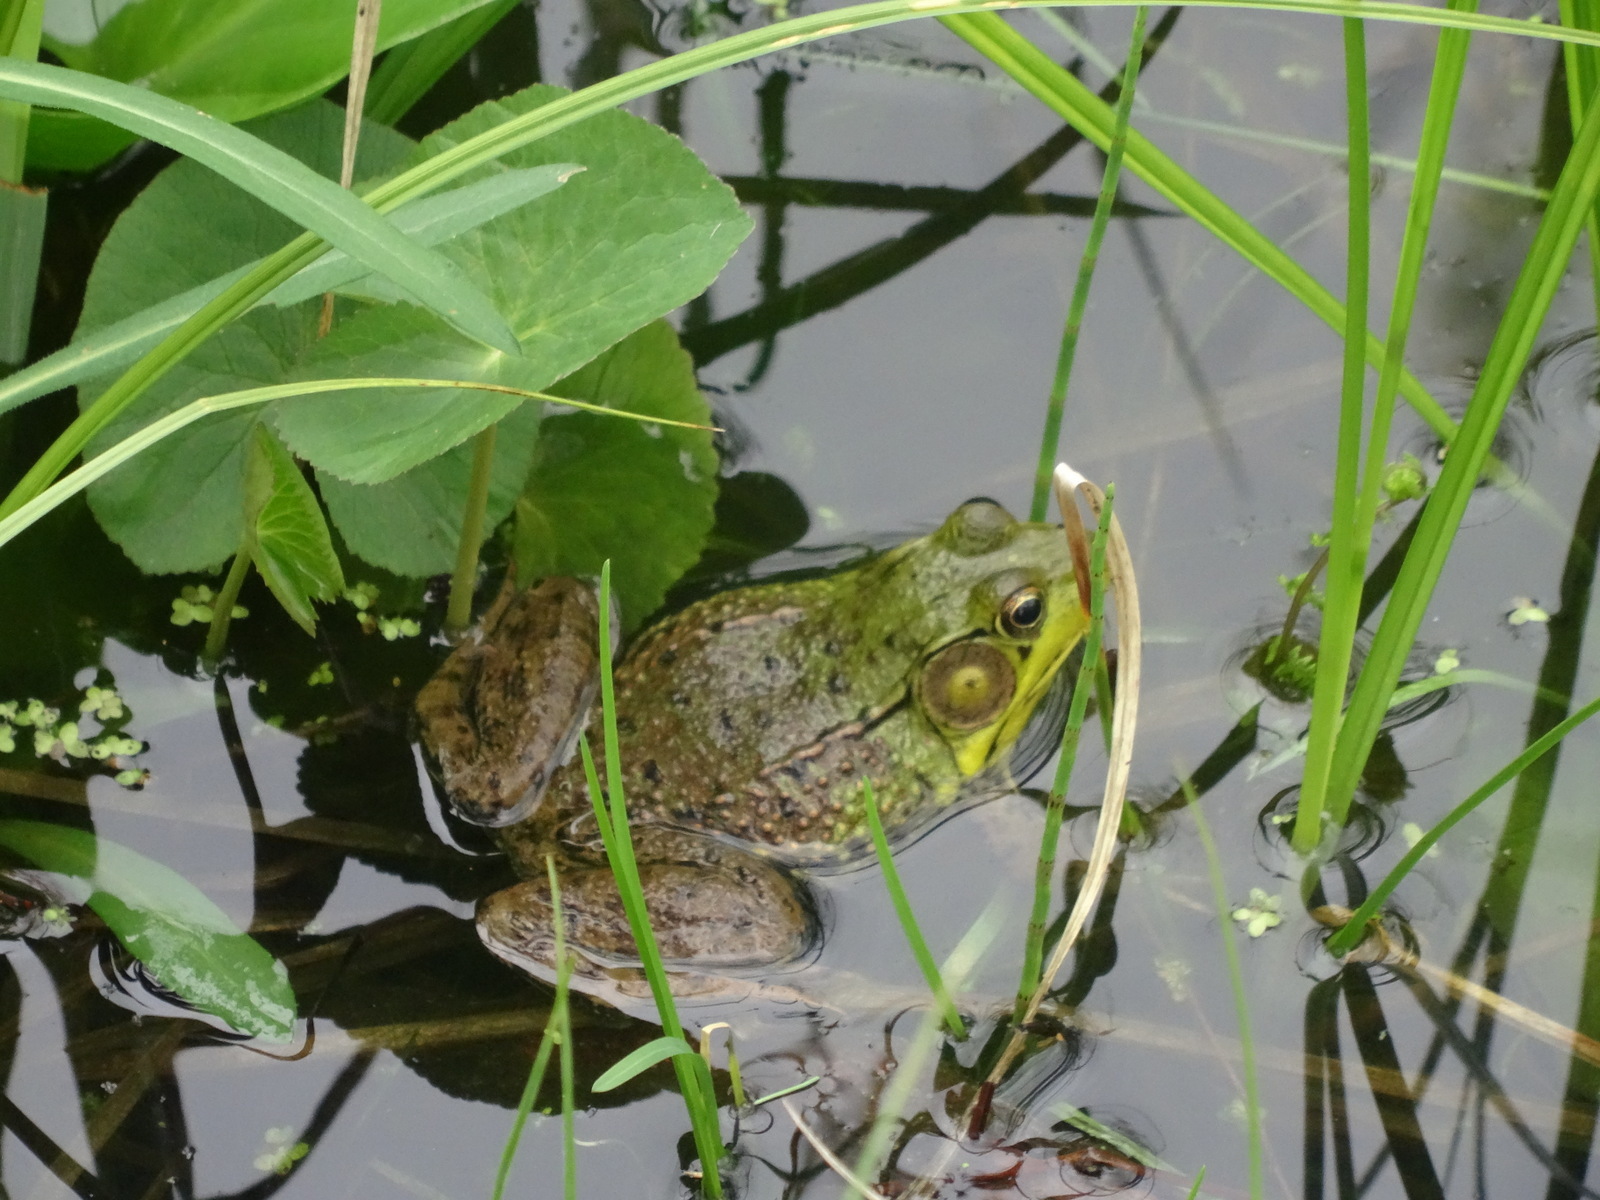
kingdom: Animalia
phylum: Chordata
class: Amphibia
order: Anura
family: Ranidae
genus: Lithobates
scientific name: Lithobates clamitans
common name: Green frog
